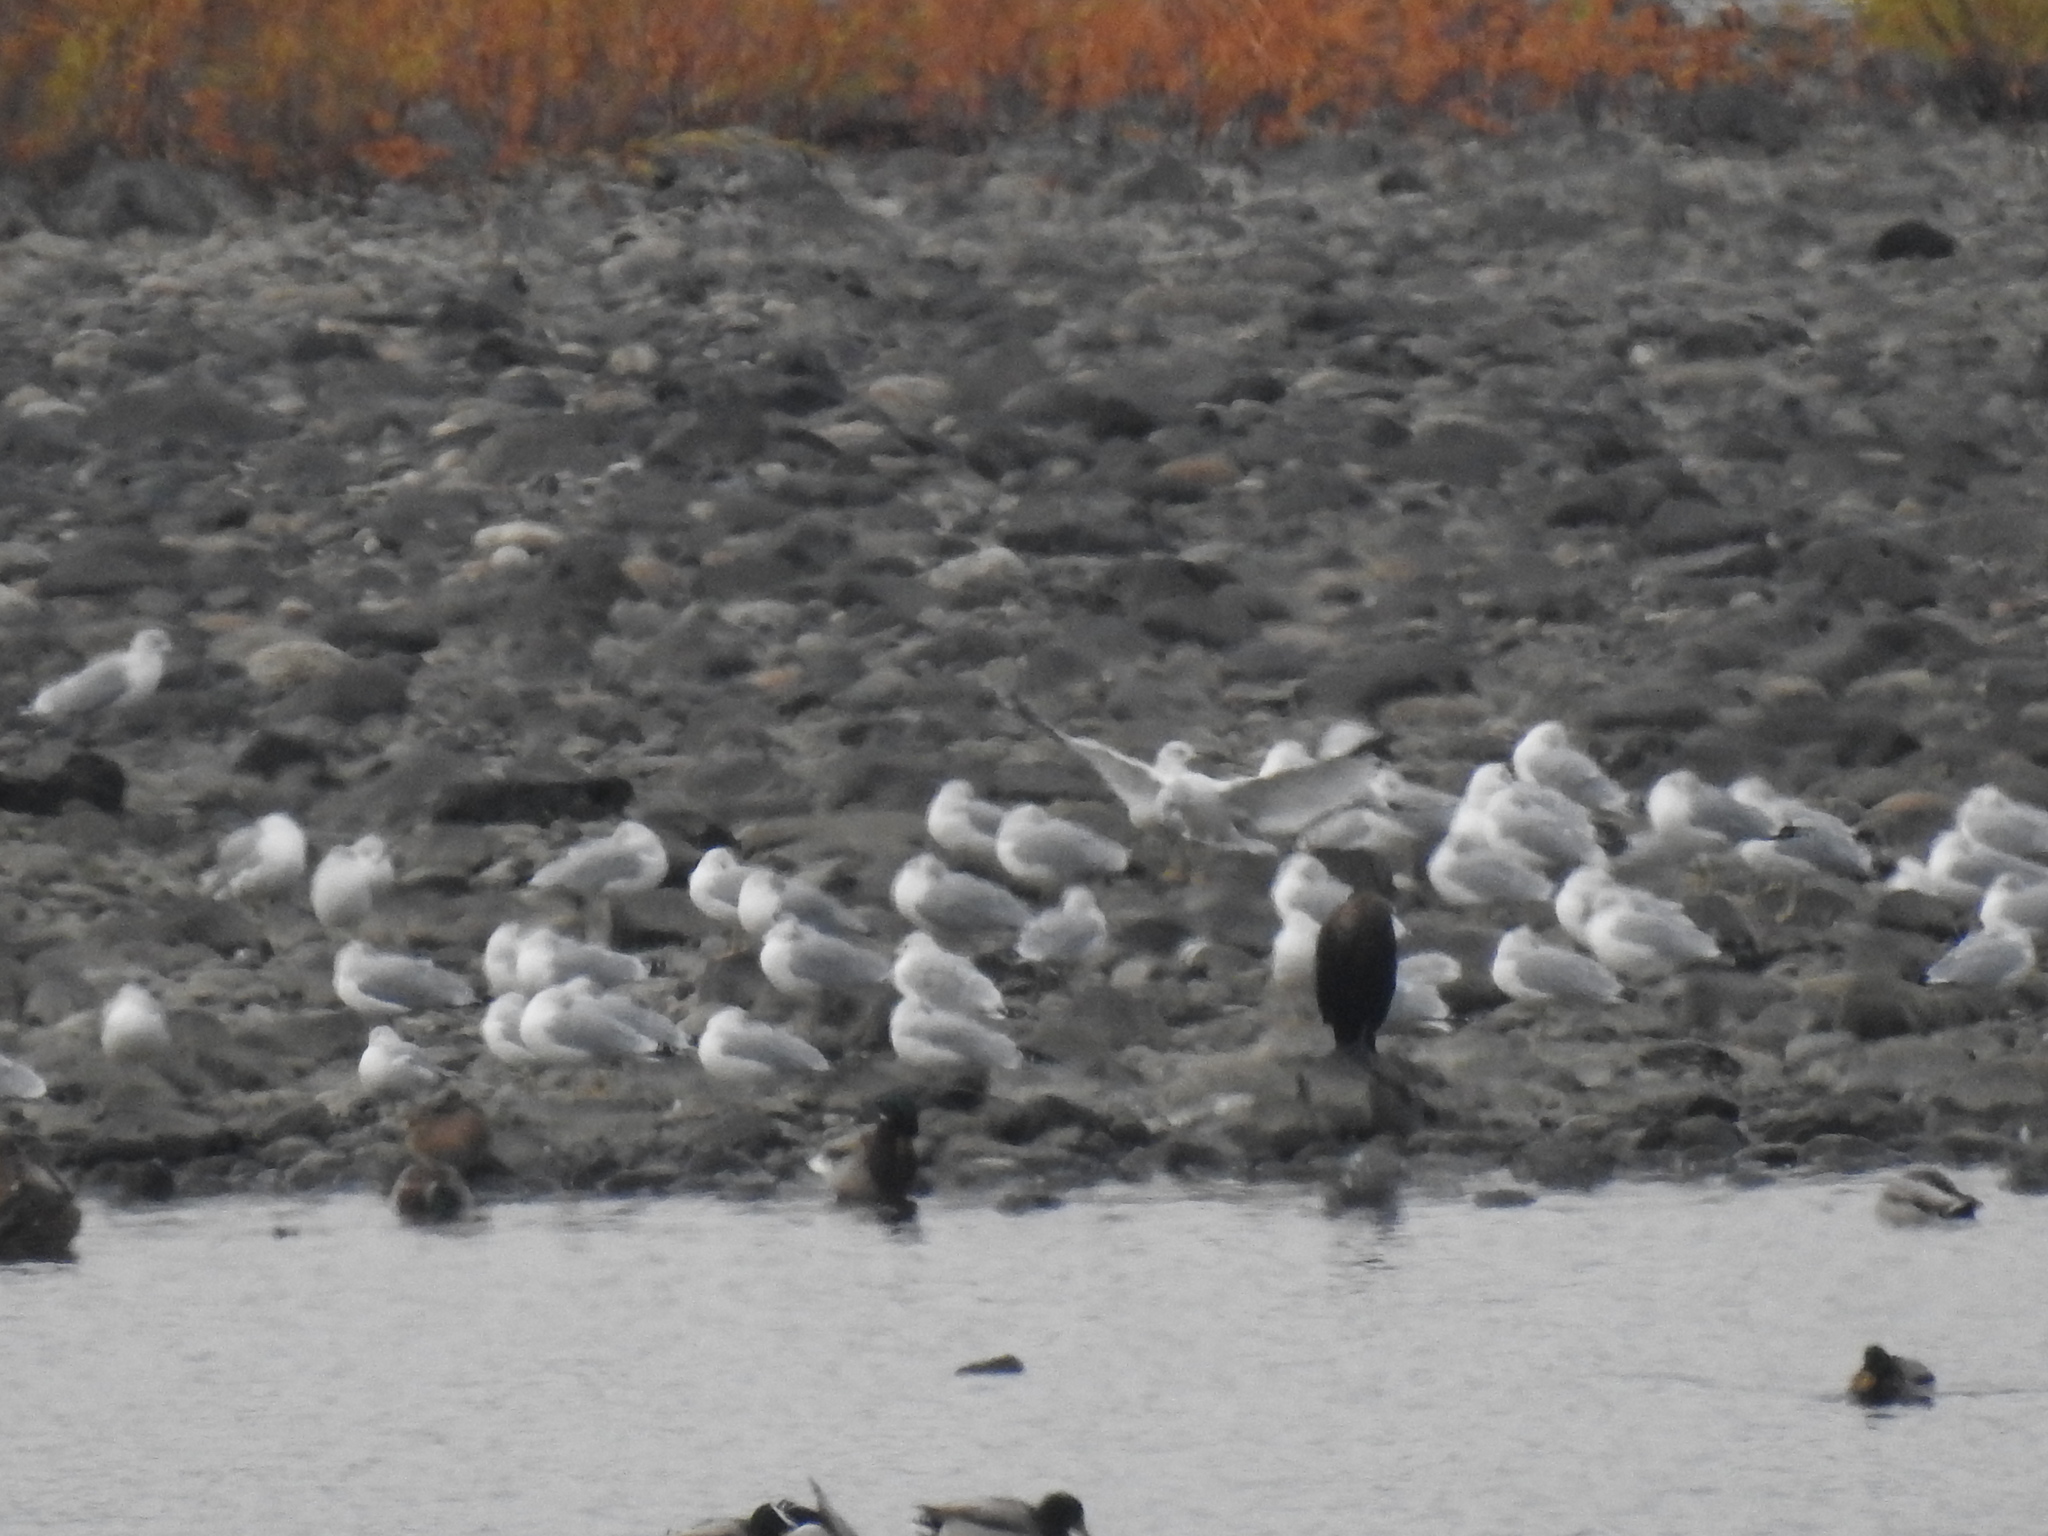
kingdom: Animalia
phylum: Chordata
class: Aves
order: Charadriiformes
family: Laridae
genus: Larus
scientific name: Larus delawarensis
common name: Ring-billed gull
